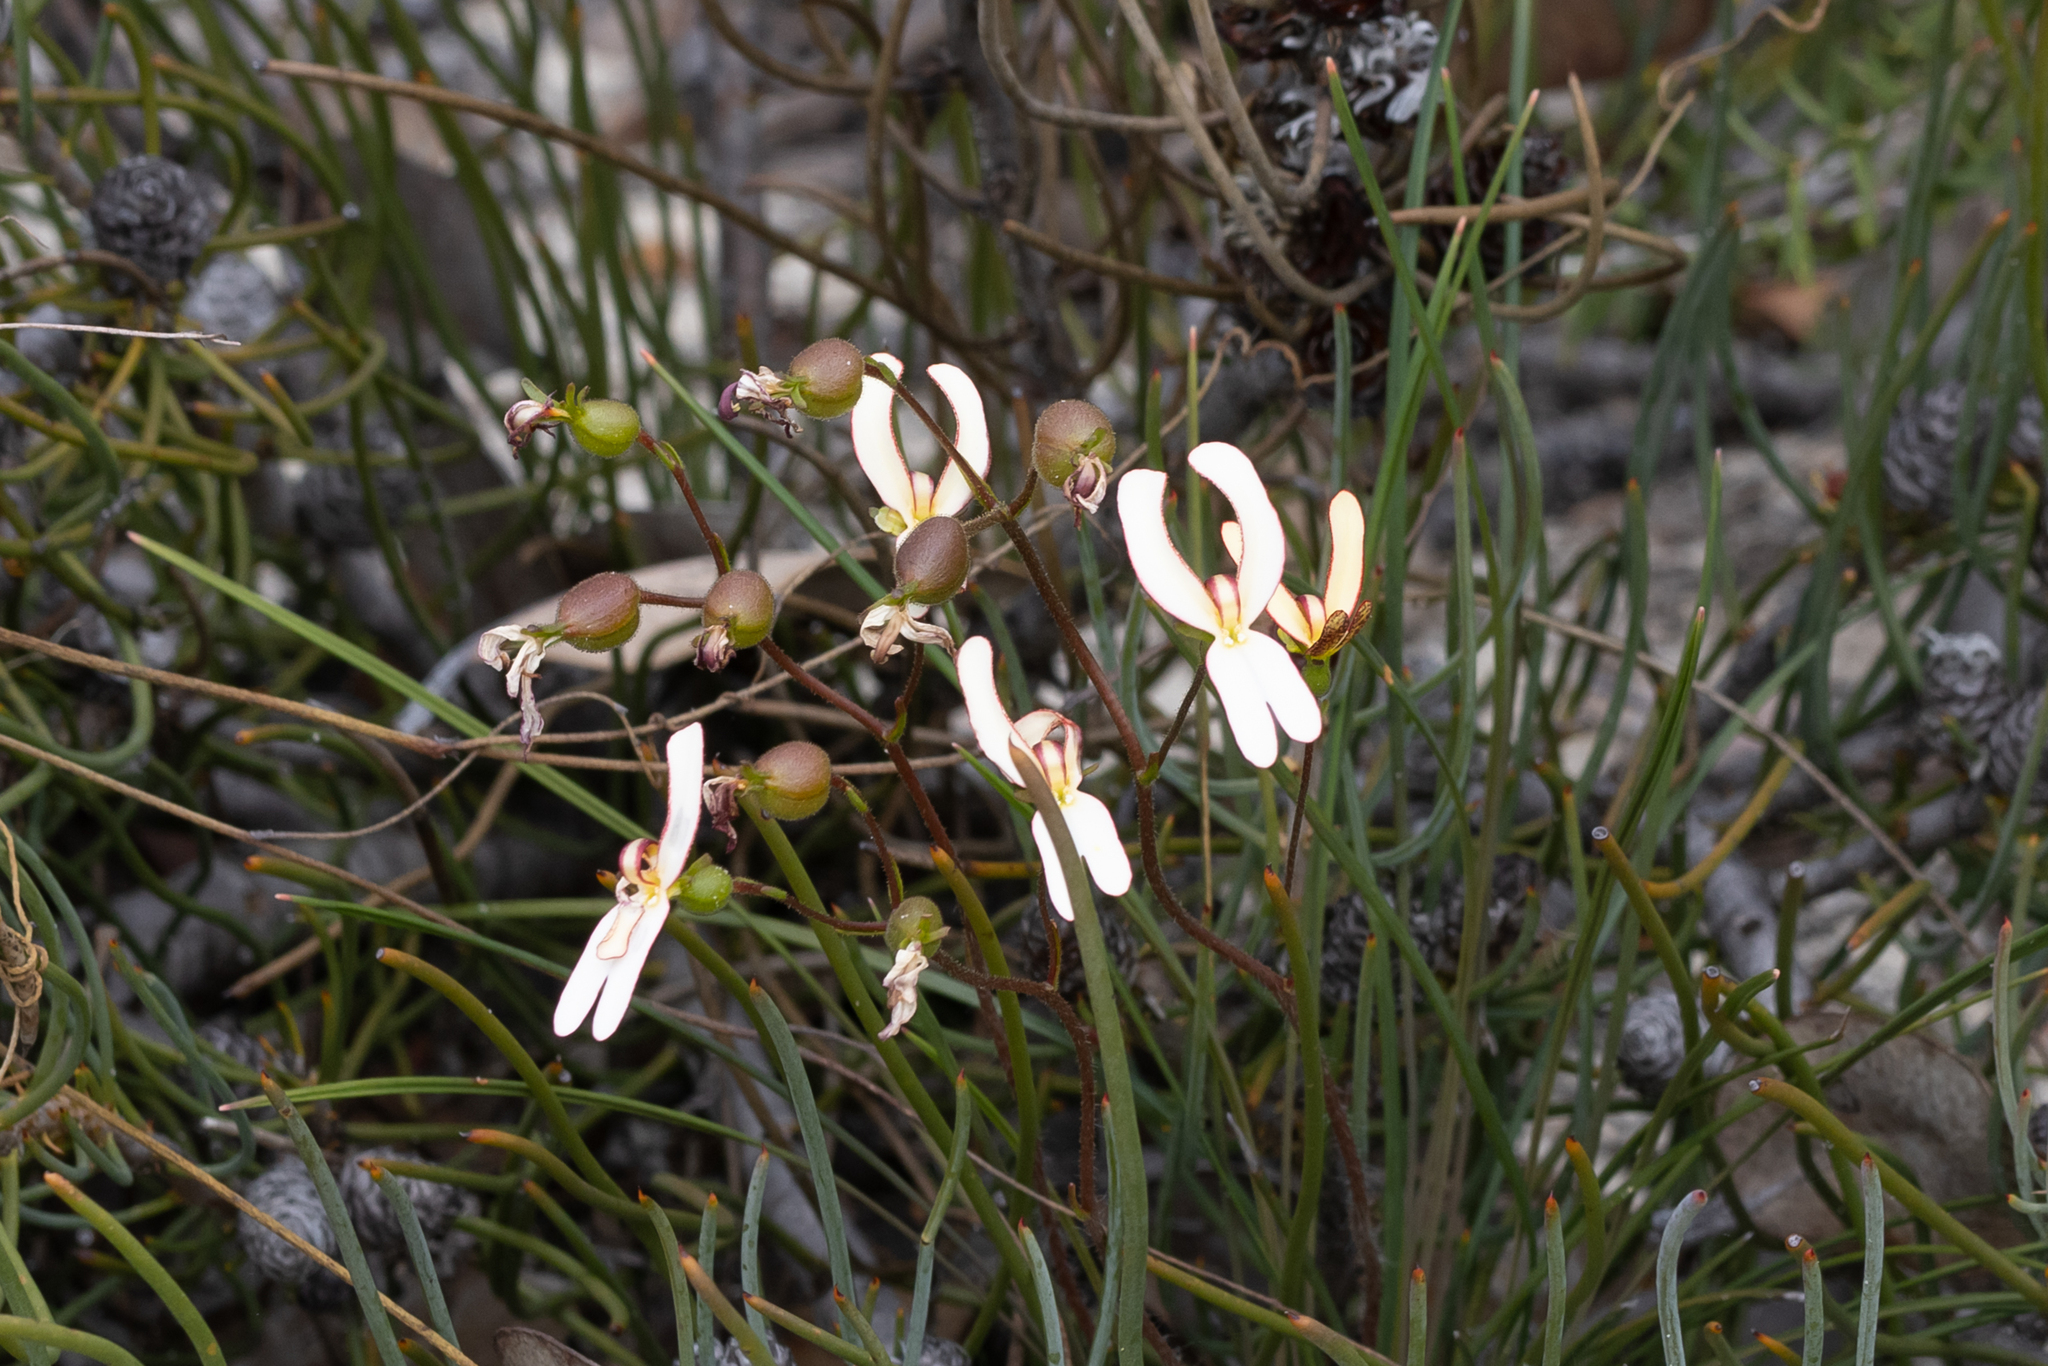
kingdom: Plantae
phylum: Tracheophyta
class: Magnoliopsida
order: Asterales
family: Stylidiaceae
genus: Stylidium
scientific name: Stylidium schoenoides
